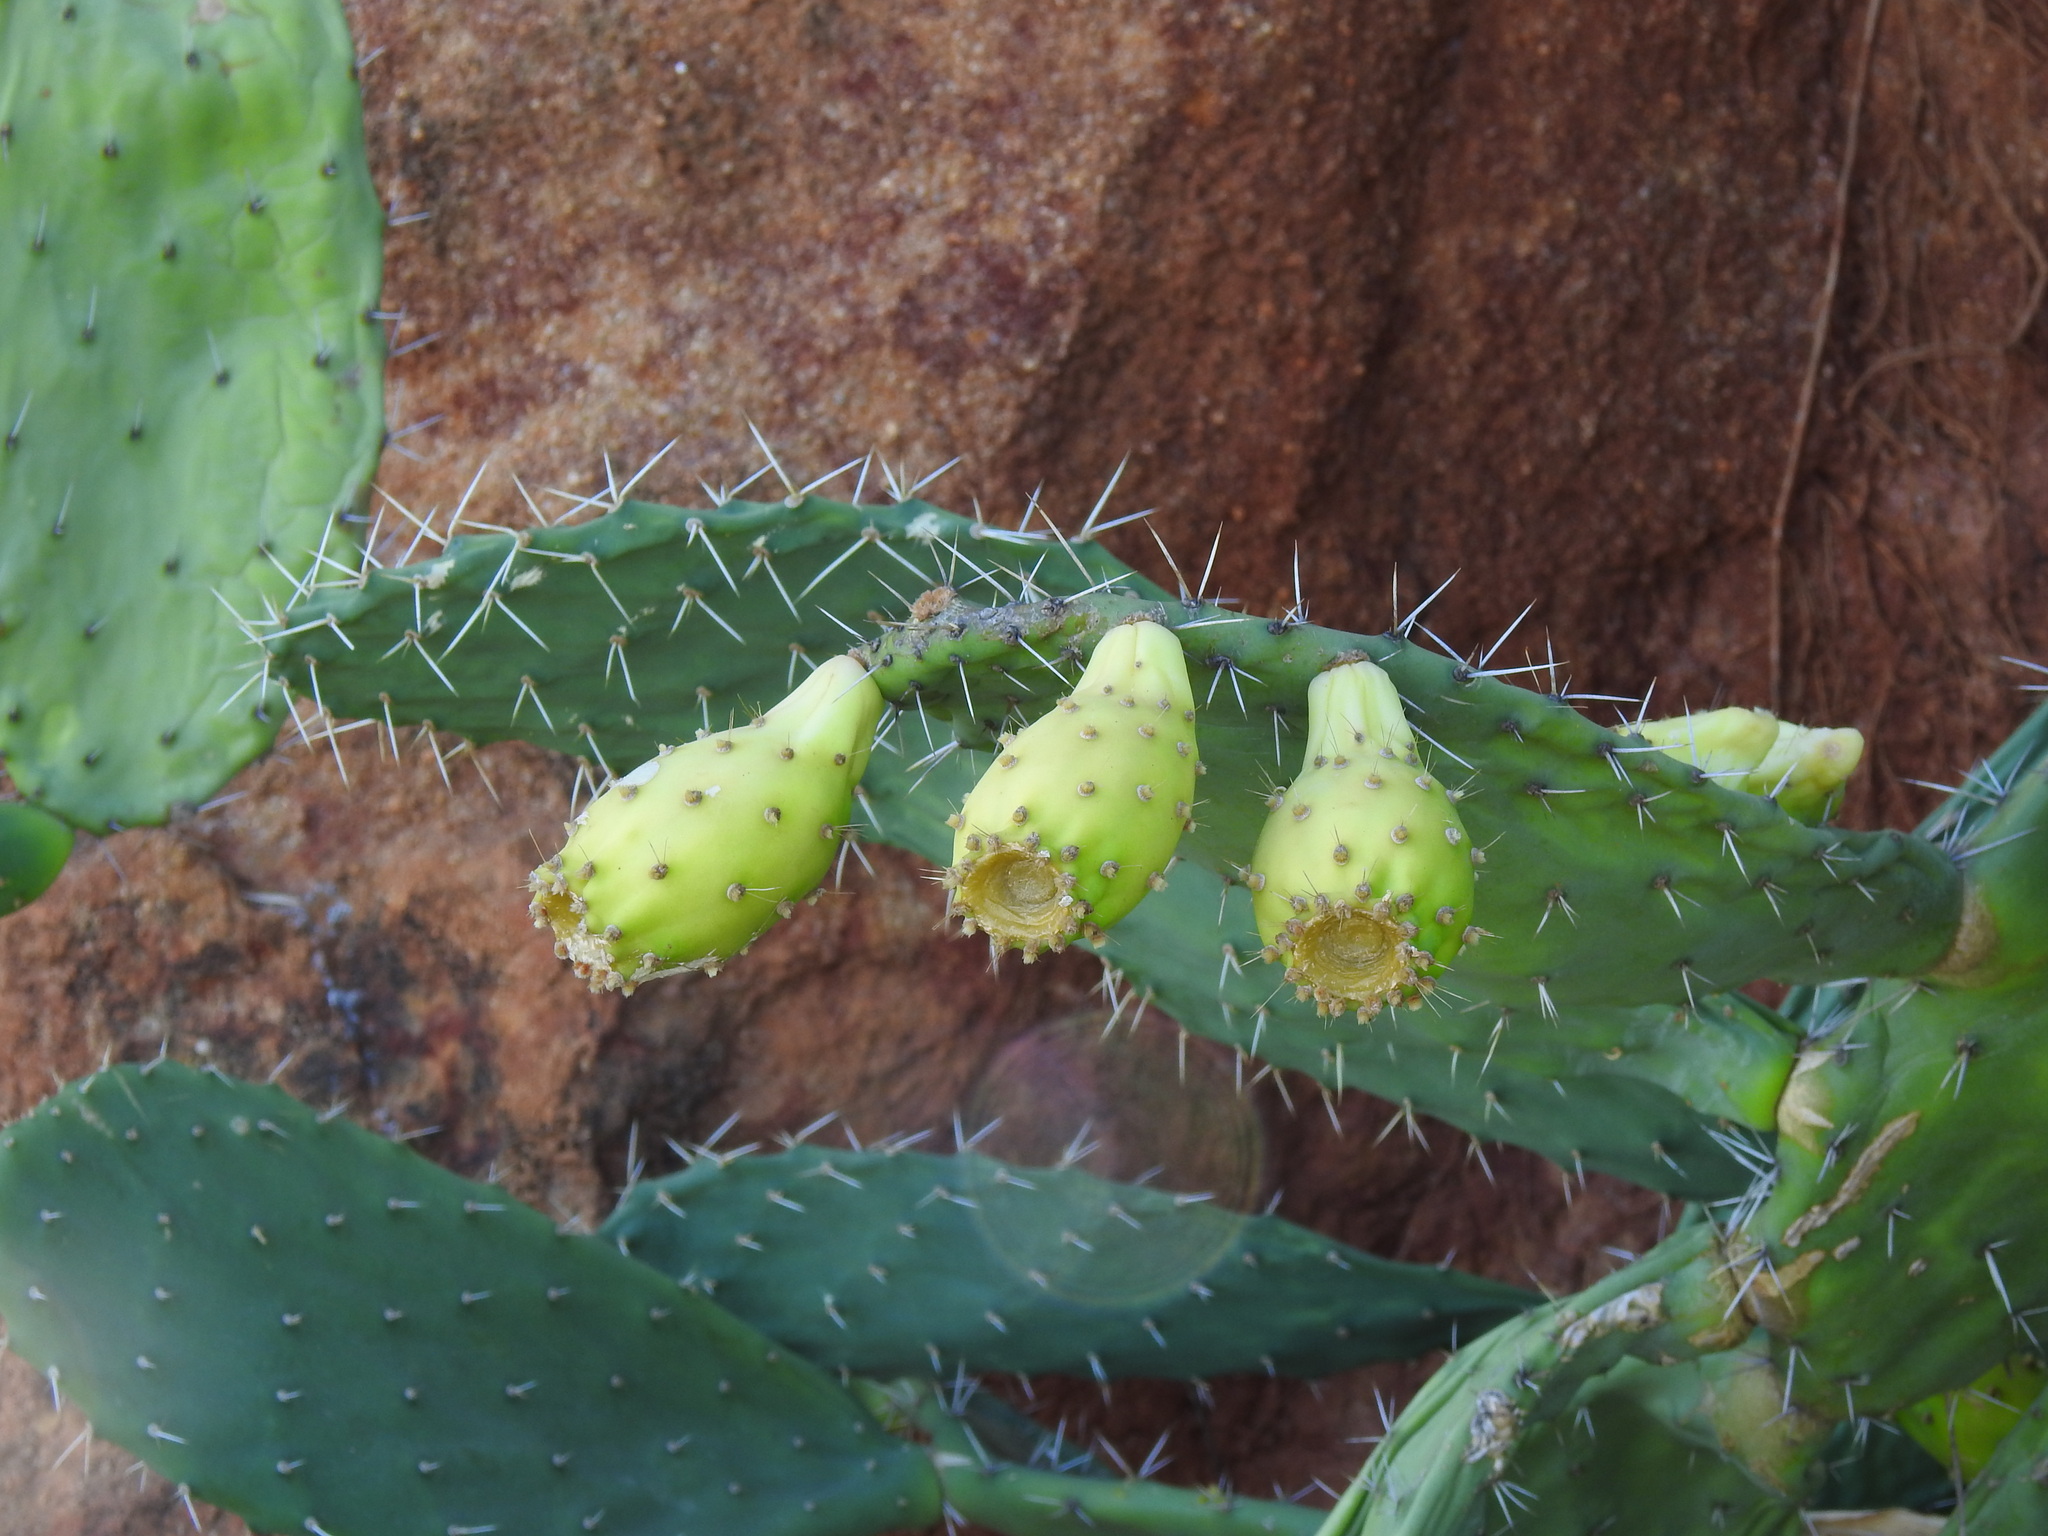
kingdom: Plantae
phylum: Tracheophyta
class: Magnoliopsida
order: Caryophyllales
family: Cactaceae
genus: Opuntia
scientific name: Opuntia ficus-indica
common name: Barbary fig
